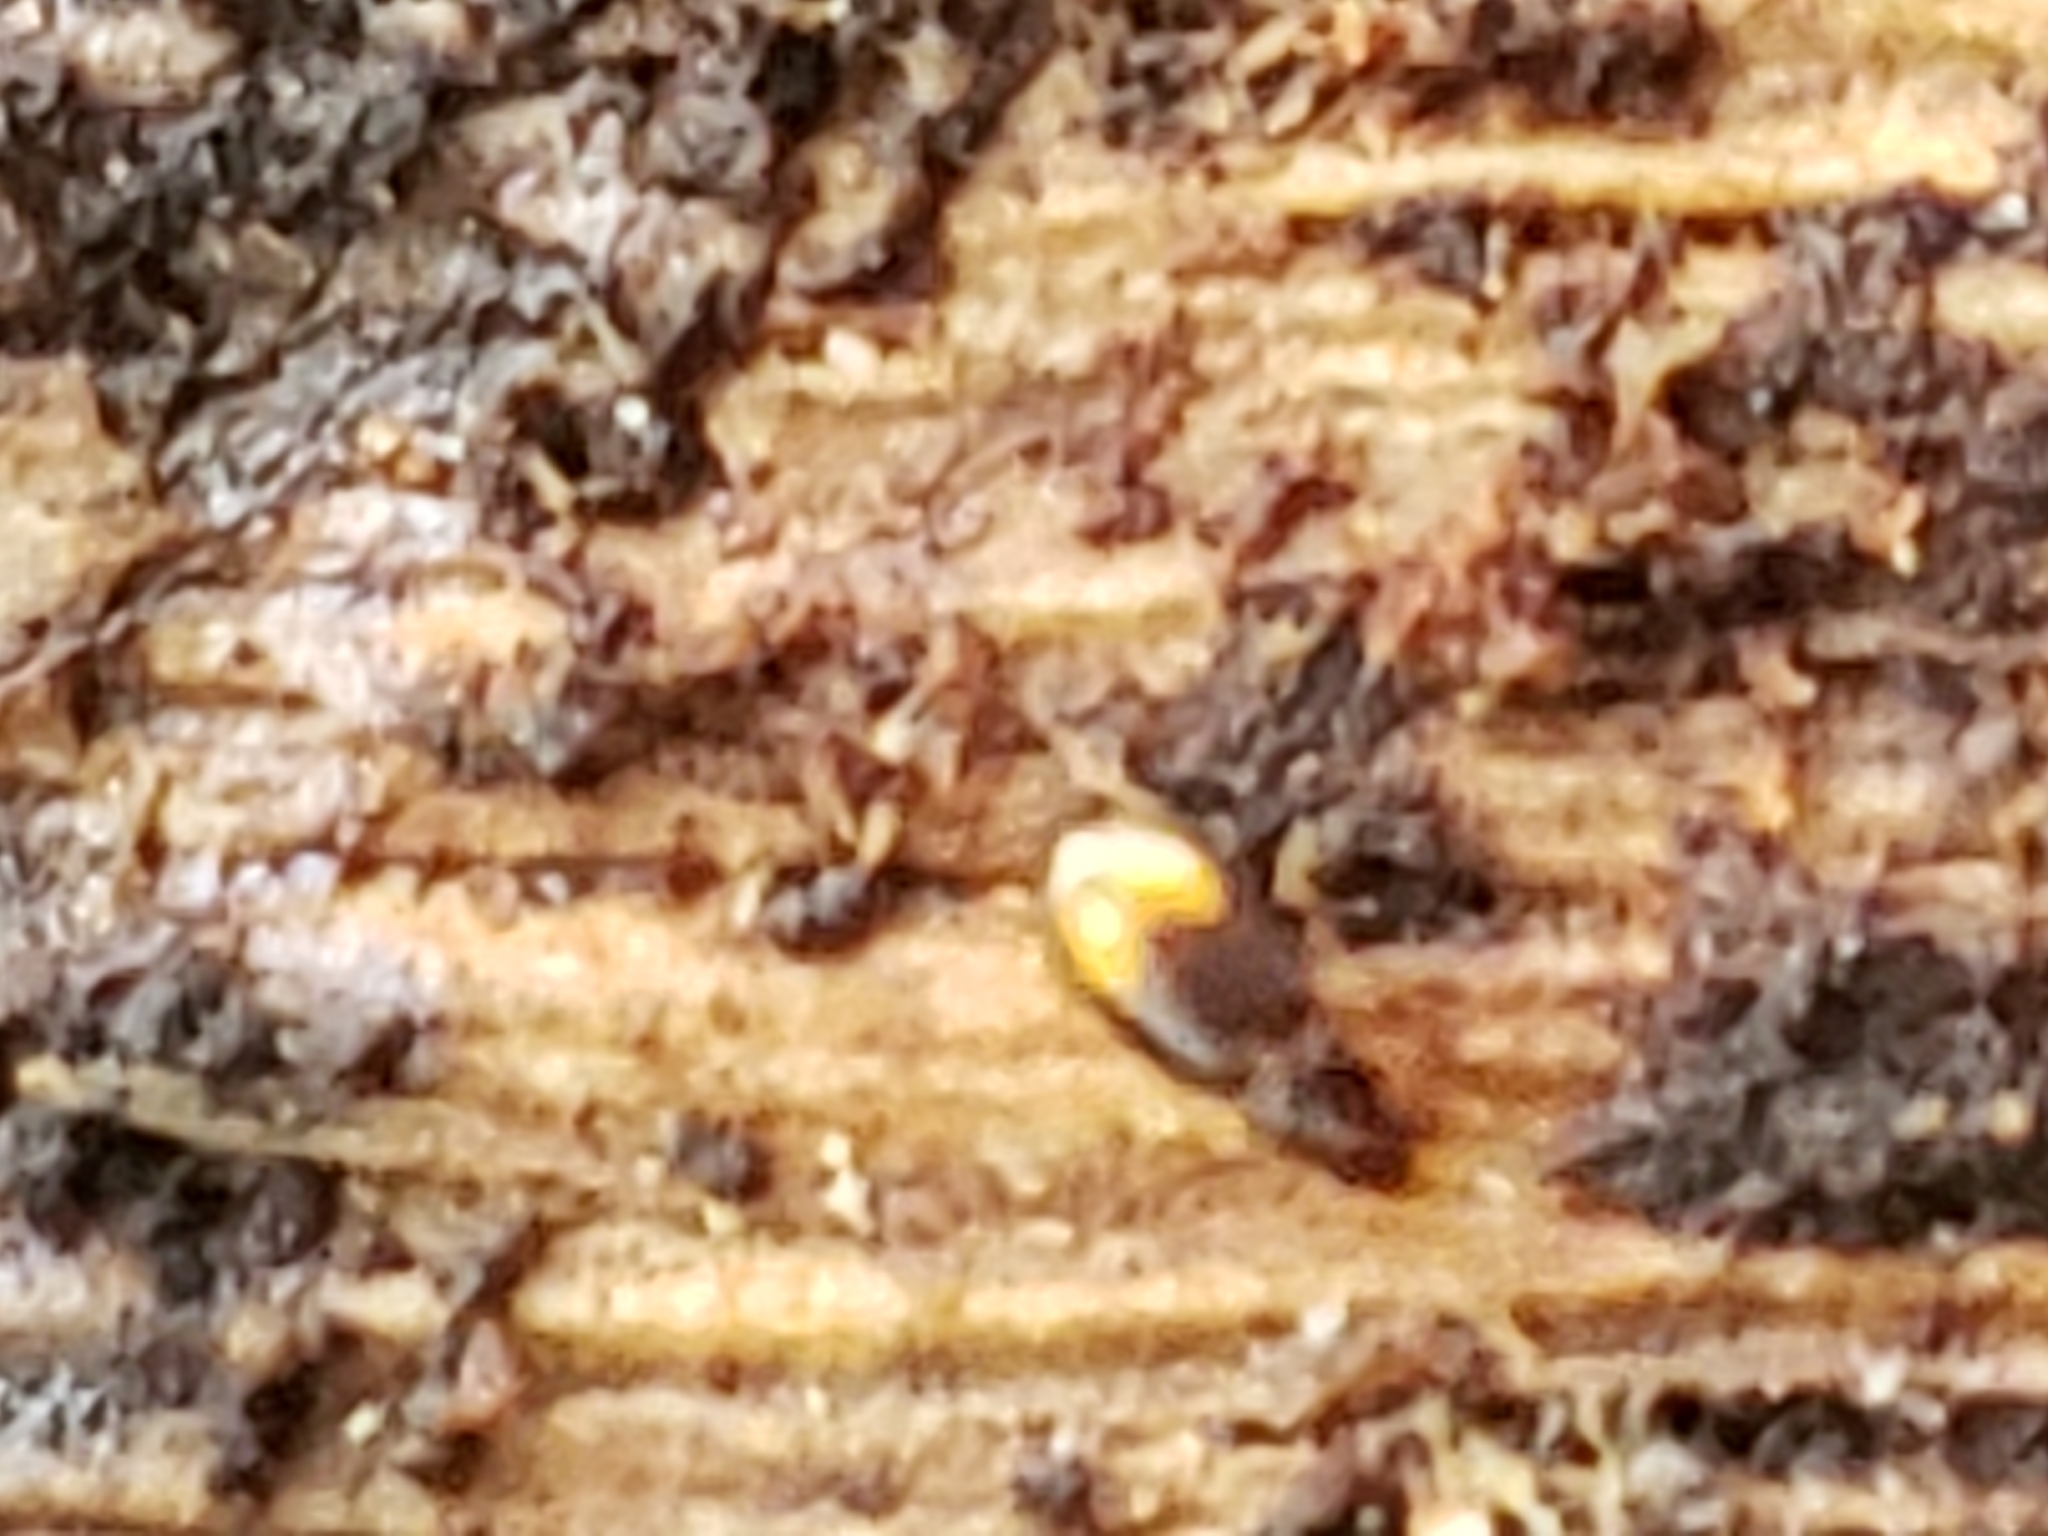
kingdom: Animalia
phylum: Arthropoda
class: Insecta
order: Coleoptera
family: Carabidae
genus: Mioptachys
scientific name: Mioptachys flavicauda
